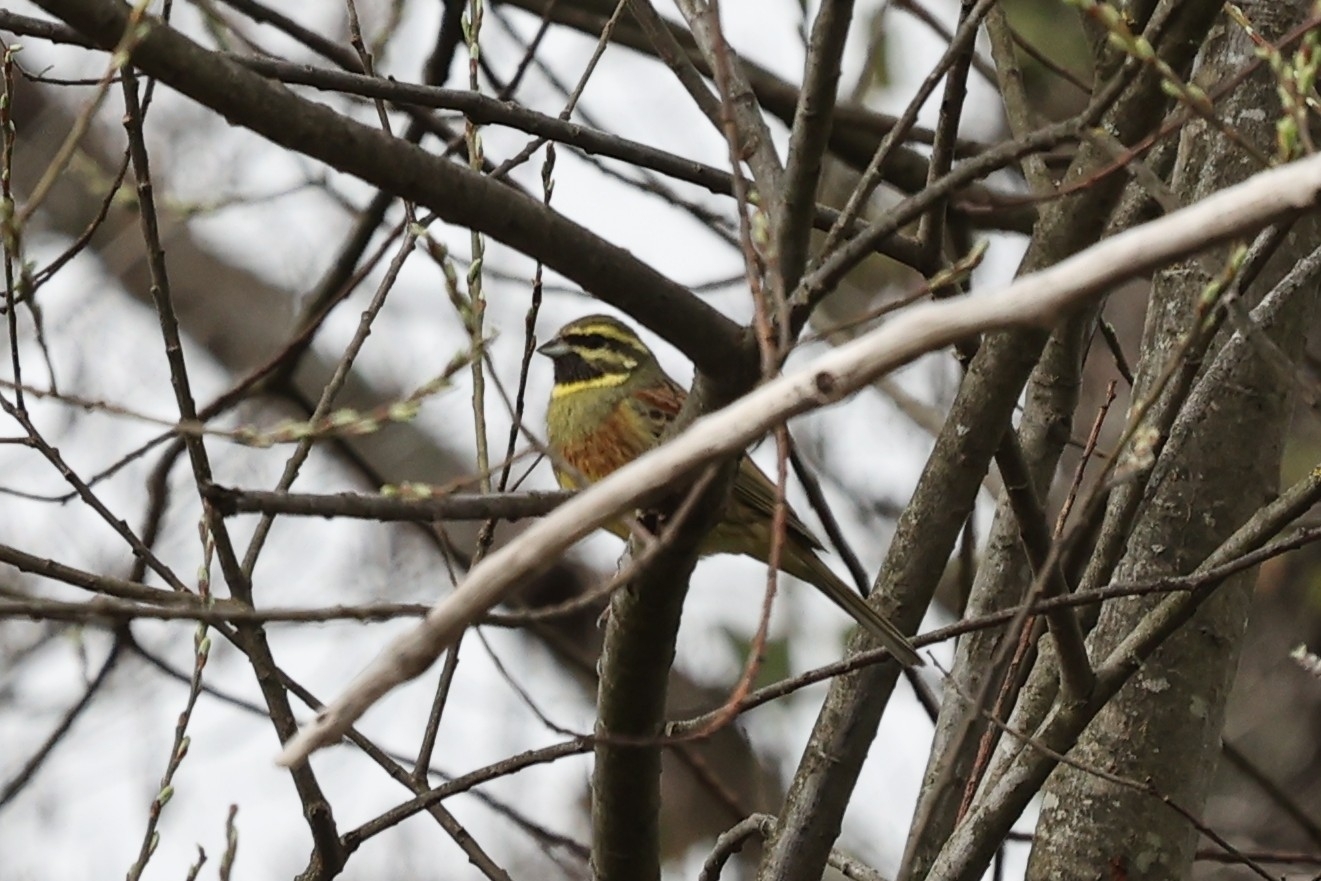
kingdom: Animalia
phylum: Chordata
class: Aves
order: Passeriformes
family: Emberizidae
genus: Emberiza
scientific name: Emberiza cirlus
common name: Cirl bunting
